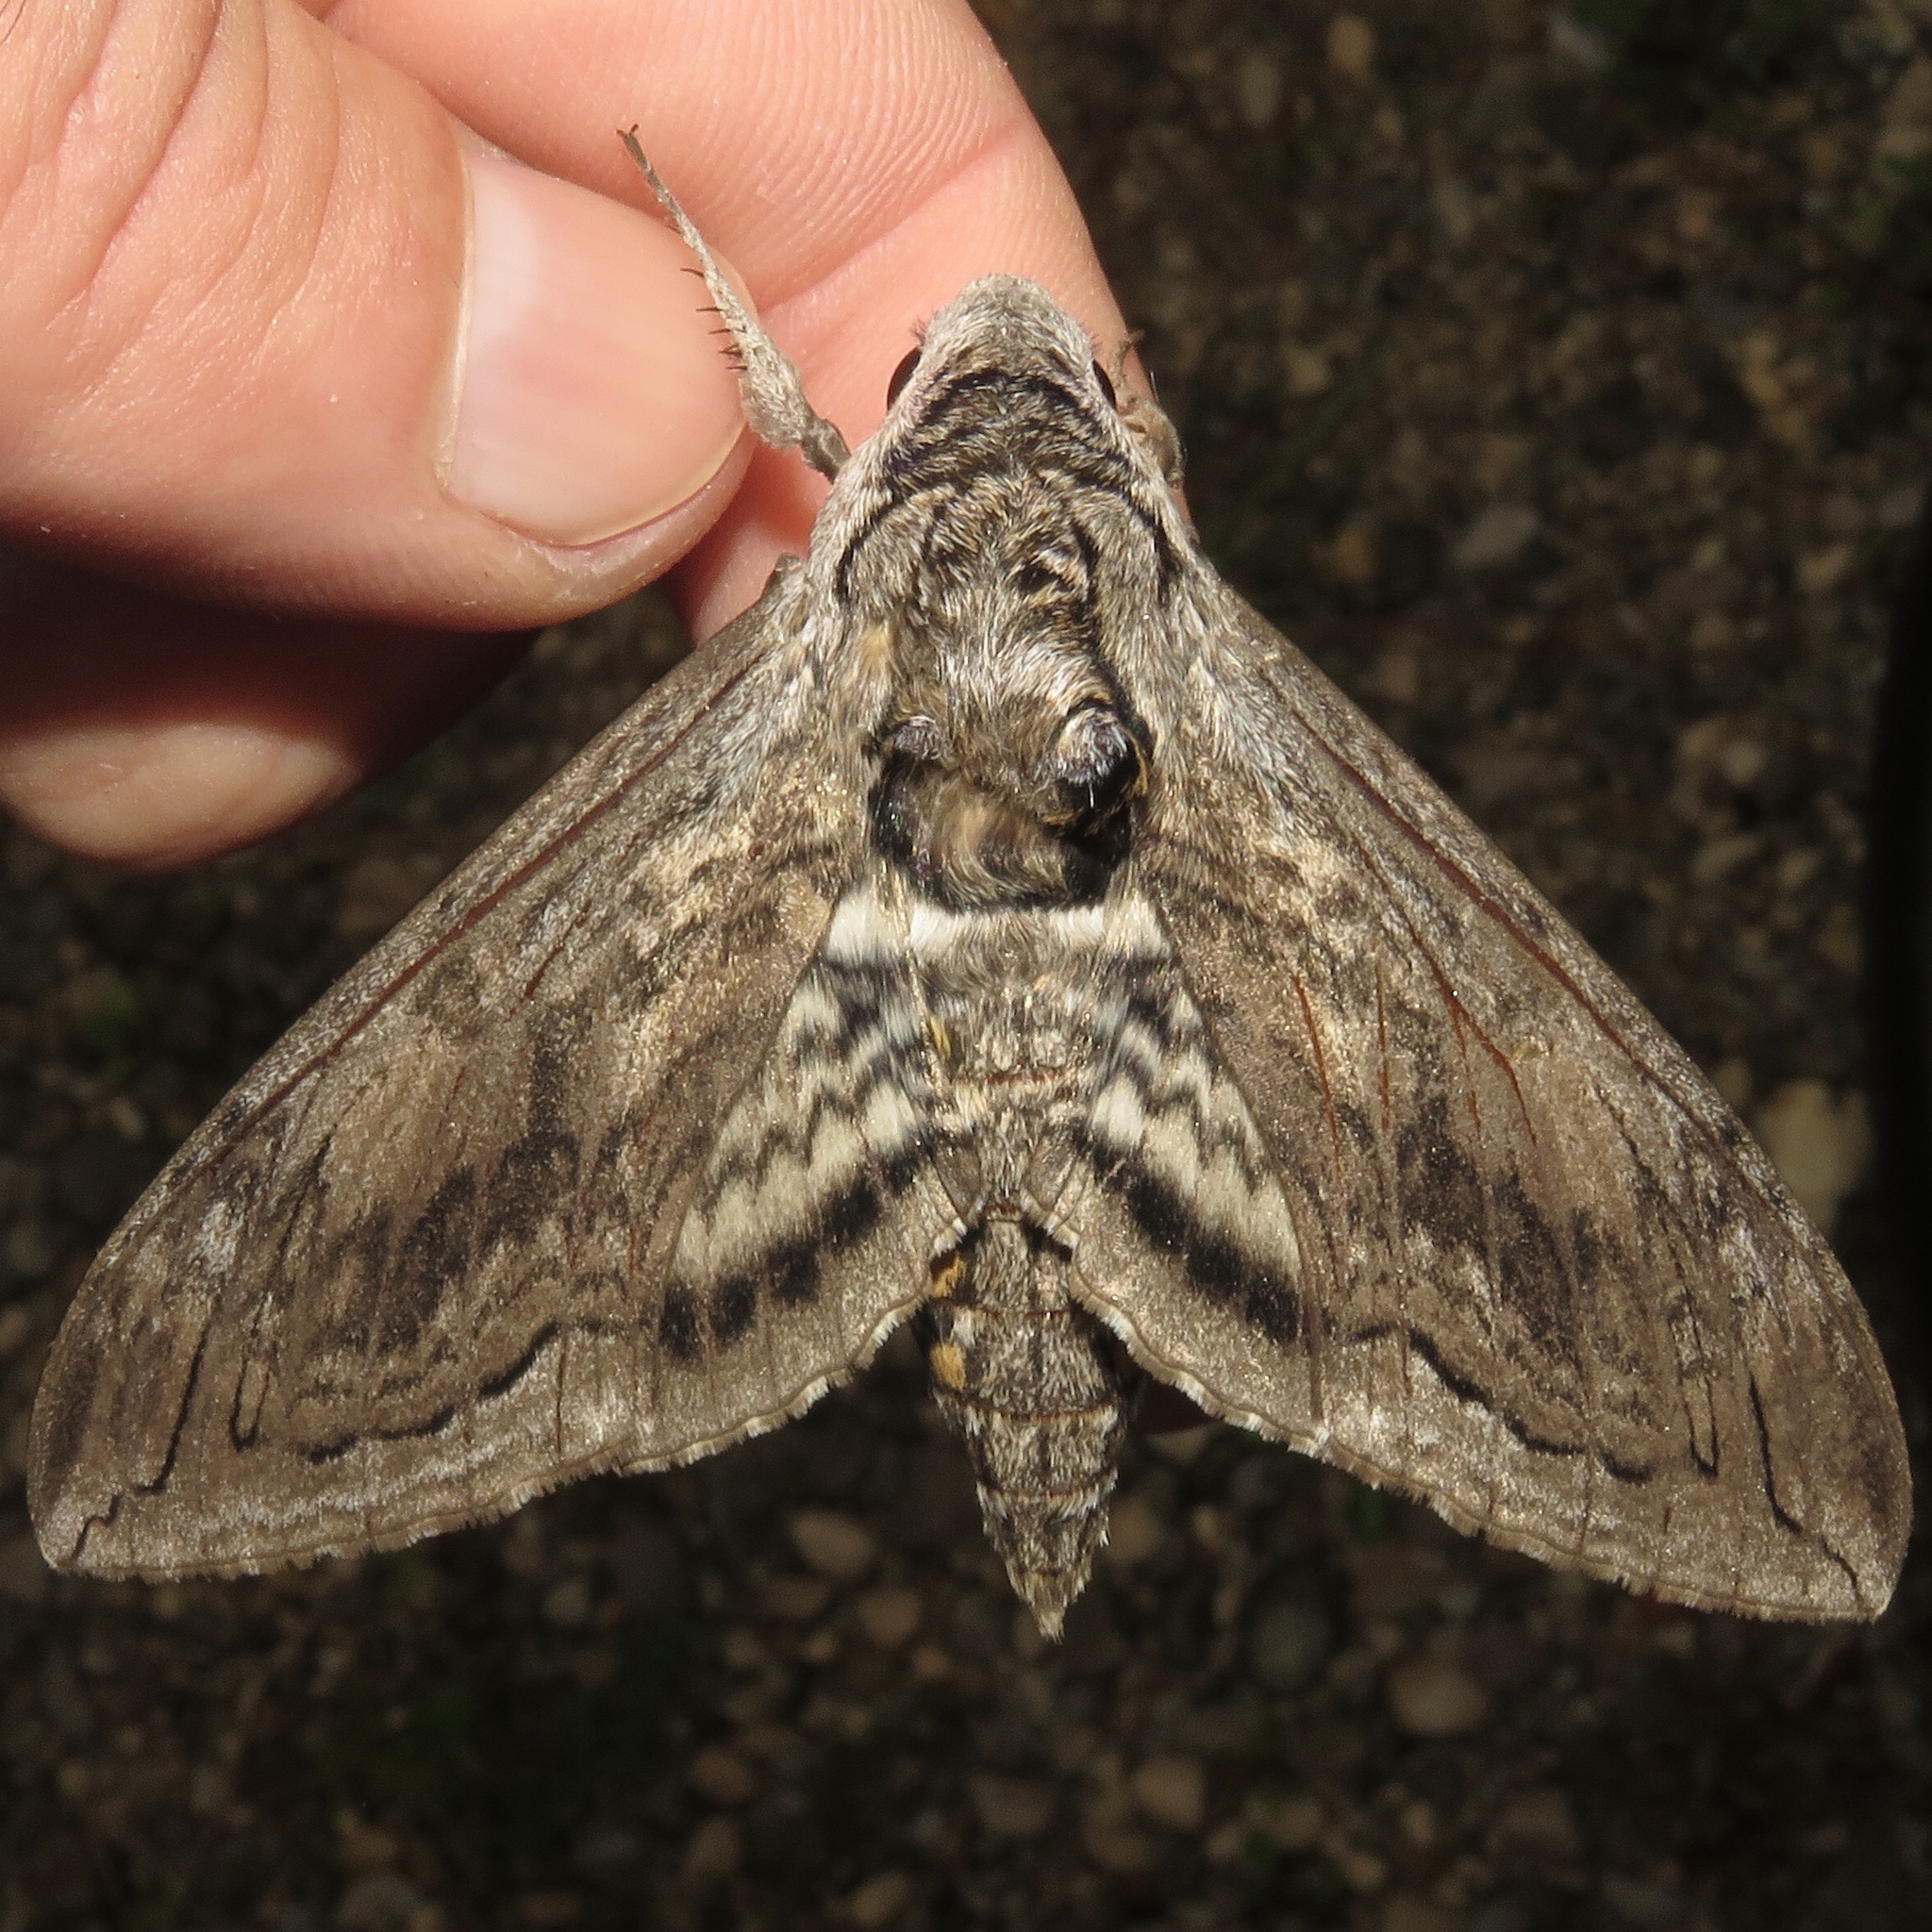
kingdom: Animalia
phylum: Arthropoda
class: Insecta
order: Lepidoptera
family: Sphingidae
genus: Manduca
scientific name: Manduca quinquemaculatus
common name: Five-spotted hawk-moth
